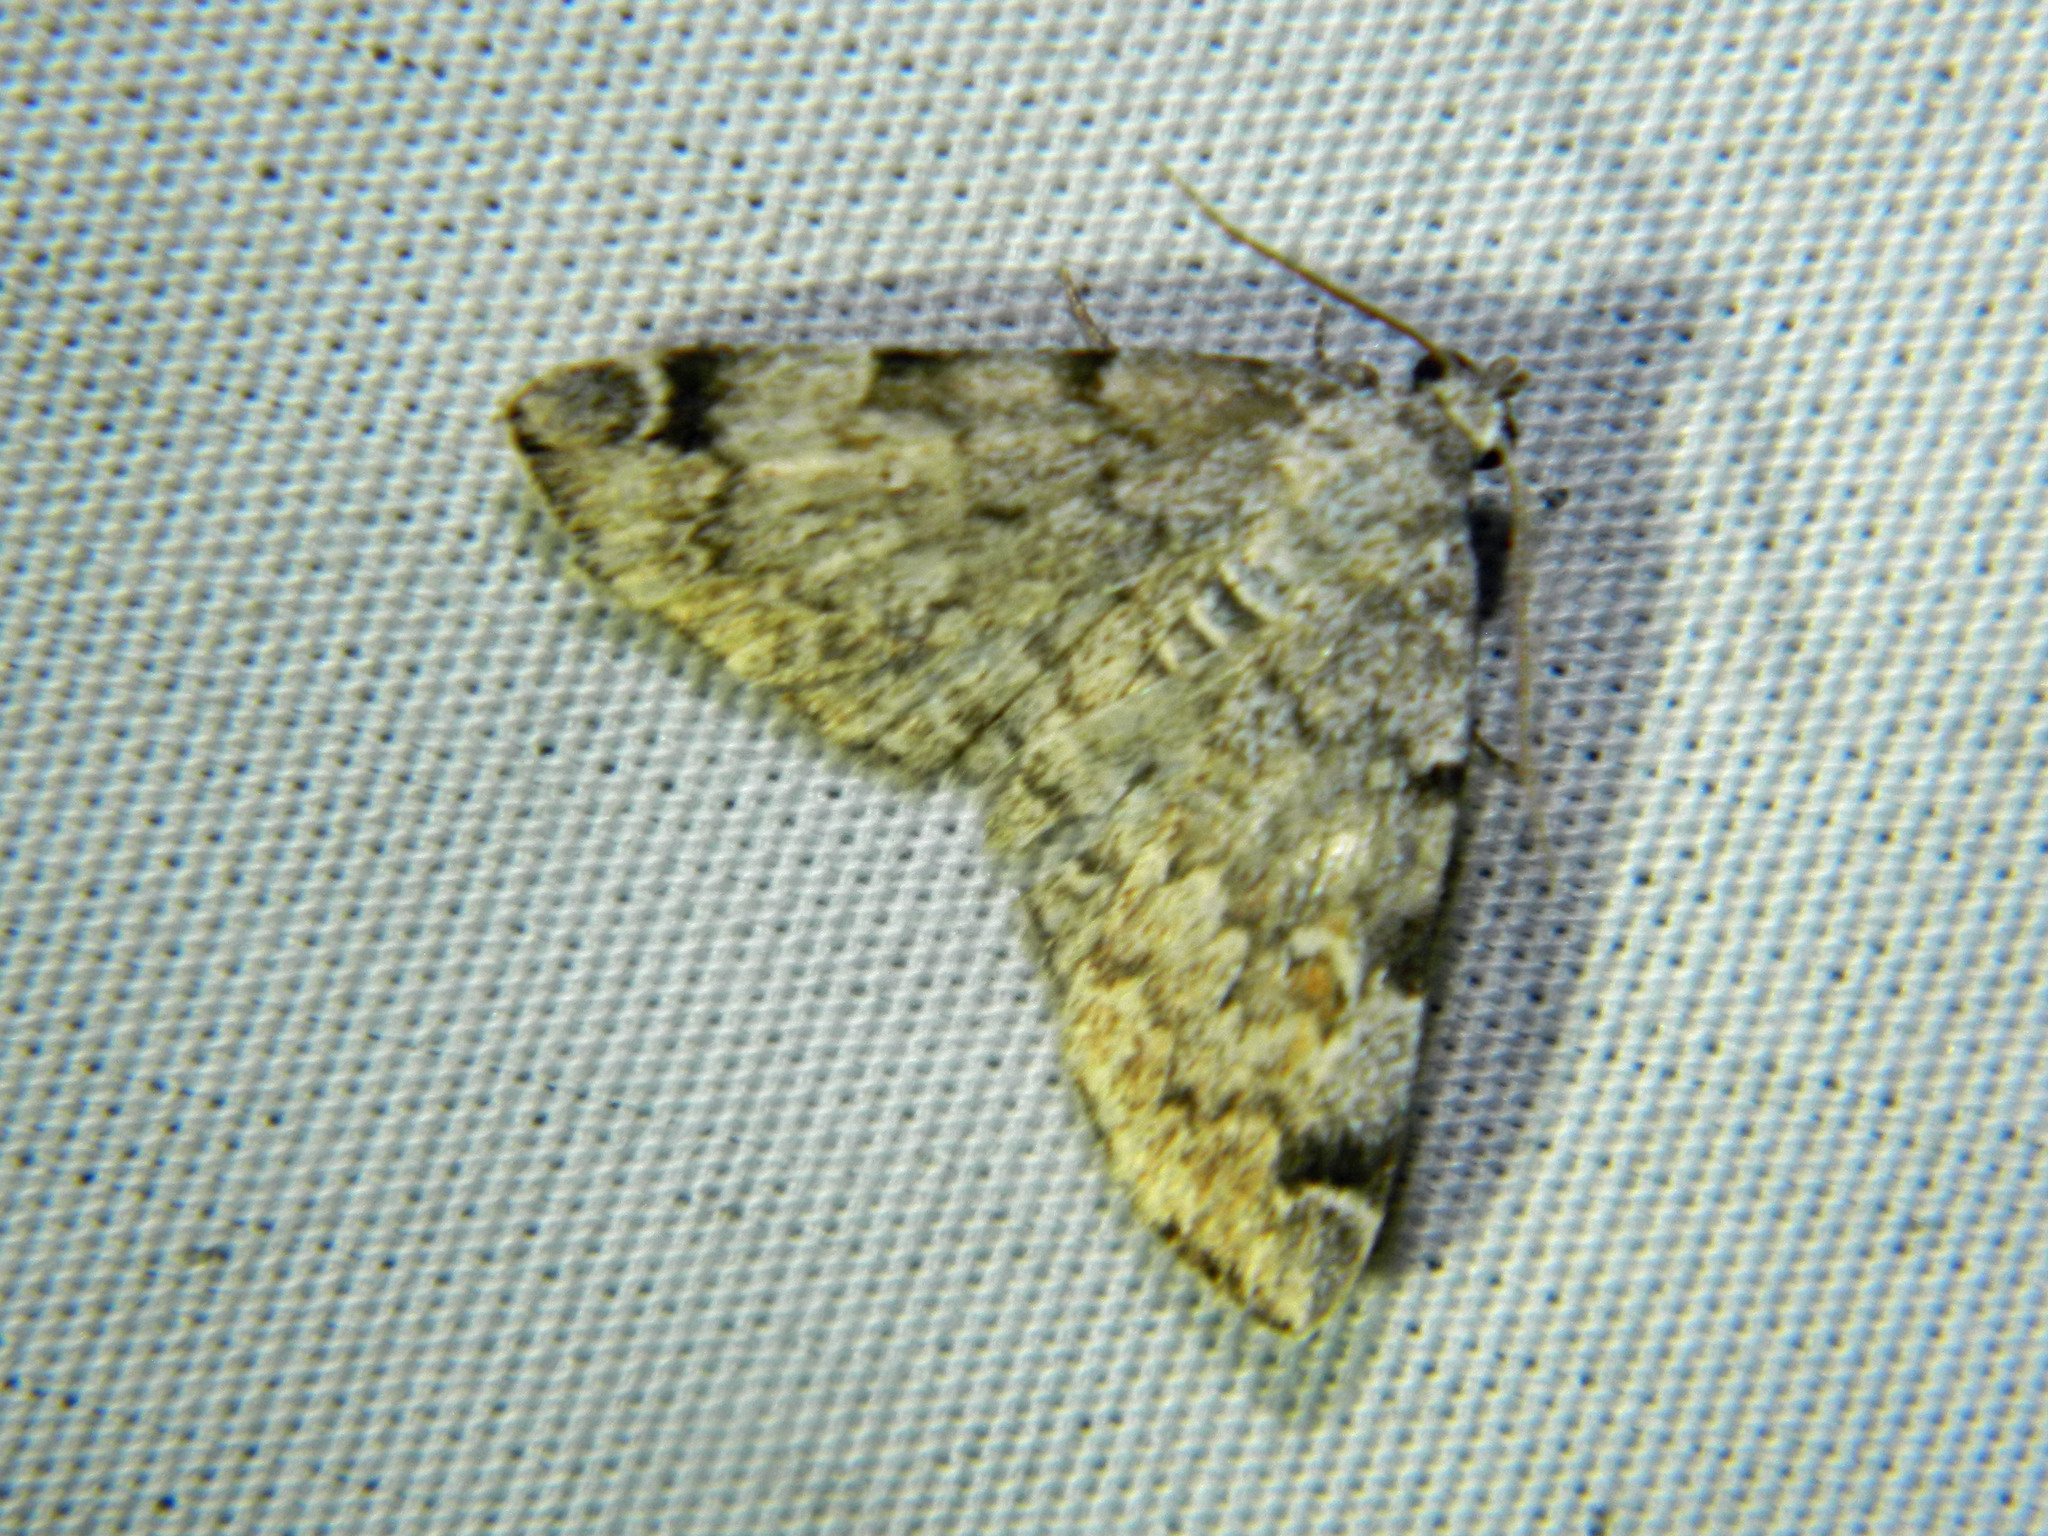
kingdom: Animalia
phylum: Arthropoda
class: Insecta
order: Lepidoptera
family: Erebidae
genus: Idia
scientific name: Idia americalis
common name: American idia moth
